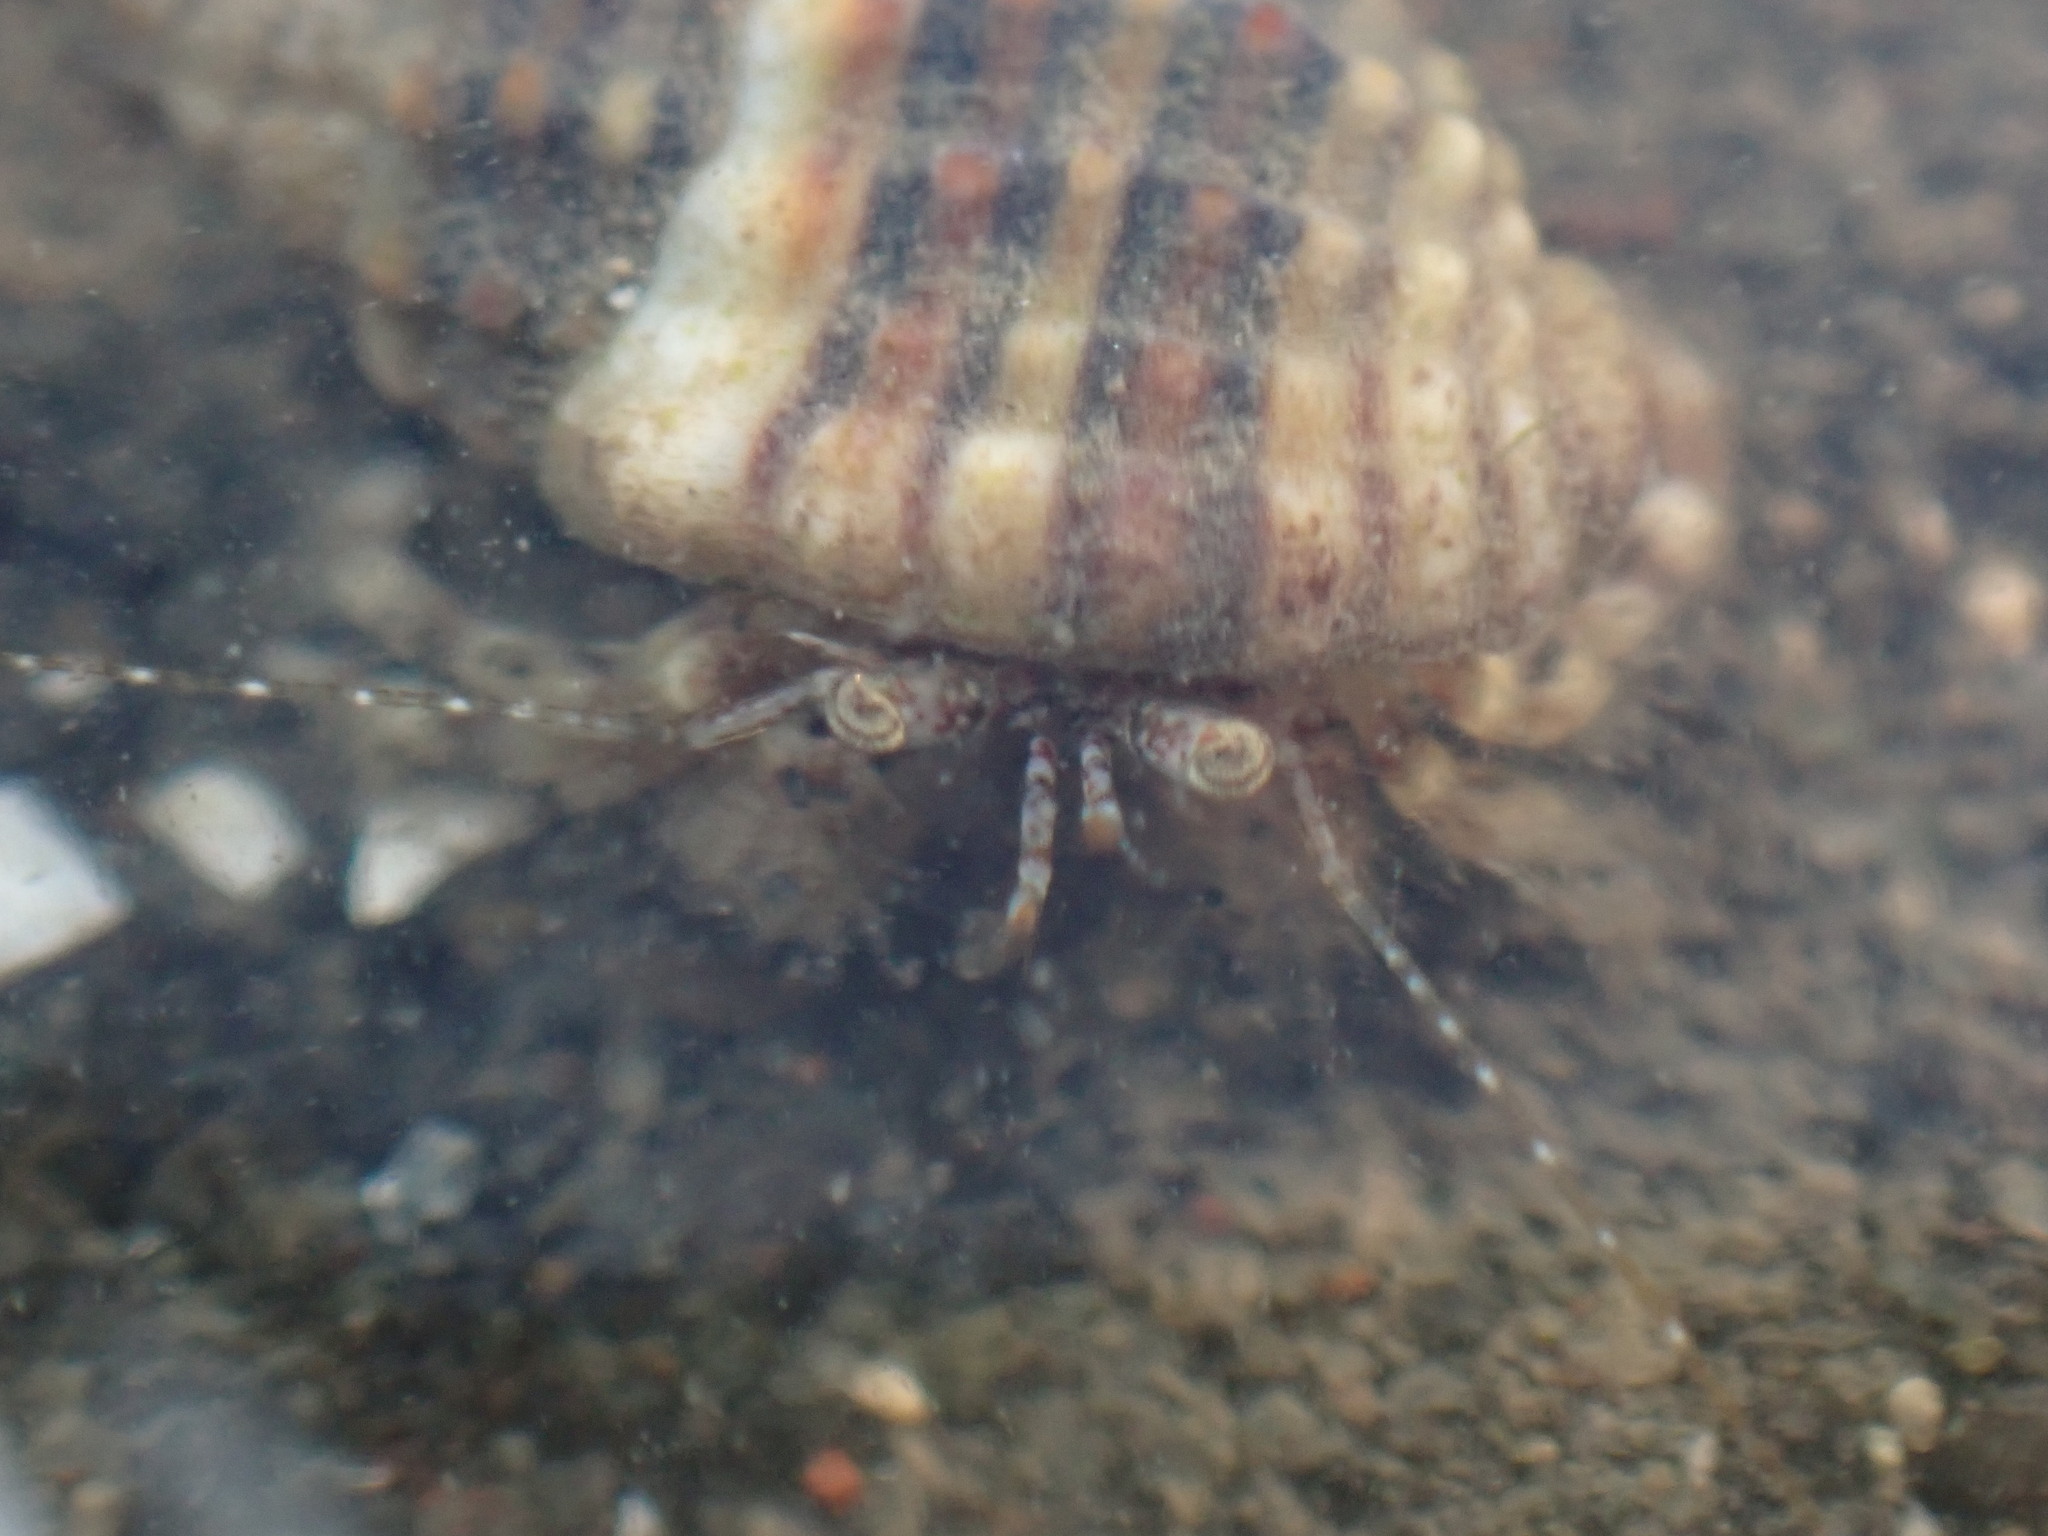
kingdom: Animalia
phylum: Arthropoda
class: Malacostraca
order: Decapoda
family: Paguridae
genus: Pagurus
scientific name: Pagurus minutus
